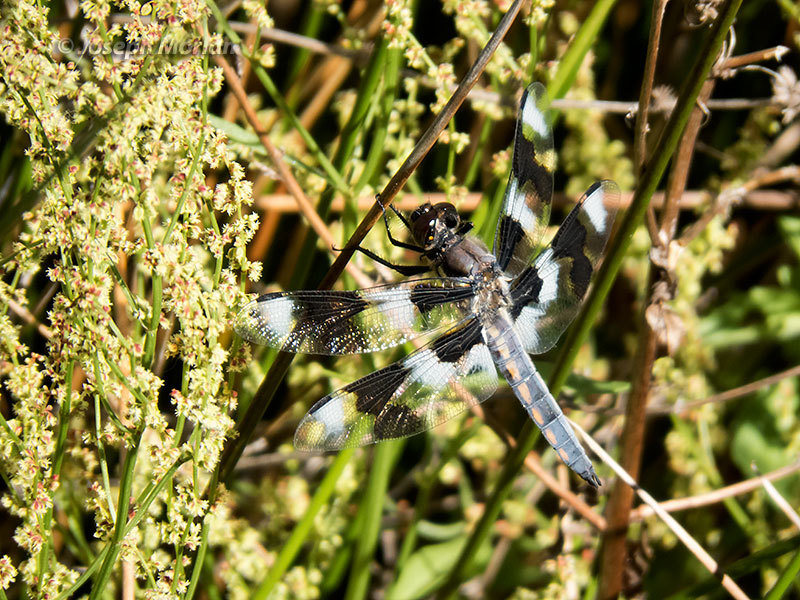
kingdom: Animalia
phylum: Arthropoda
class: Insecta
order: Odonata
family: Libellulidae
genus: Libellula
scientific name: Libellula forensis
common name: Eight-spotted skimmer
